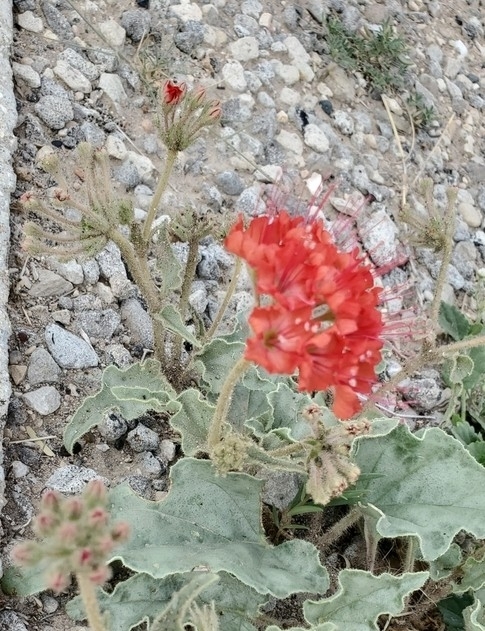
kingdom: Plantae
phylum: Tracheophyta
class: Magnoliopsida
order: Caryophyllales
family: Nyctaginaceae
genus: Nyctaginia
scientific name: Nyctaginia capitata
